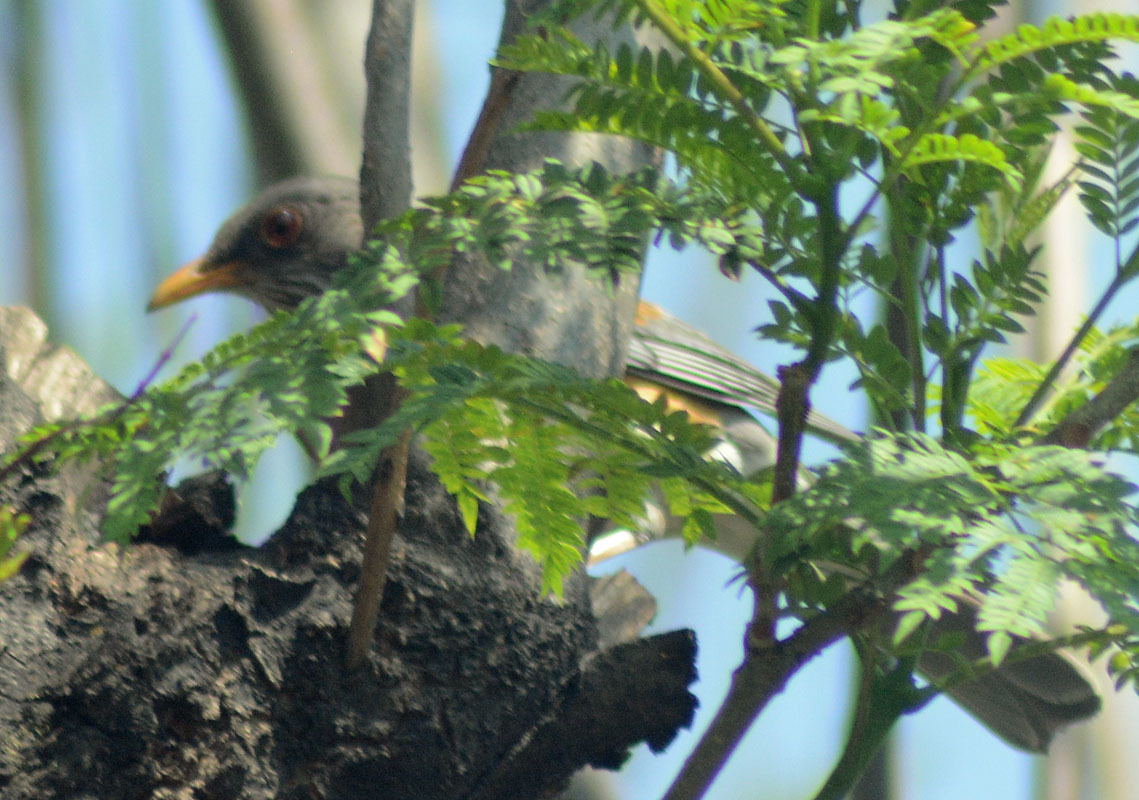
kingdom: Animalia
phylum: Chordata
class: Aves
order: Passeriformes
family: Turdidae
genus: Turdus
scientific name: Turdus rufopalliatus
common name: Rufous-backed robin
